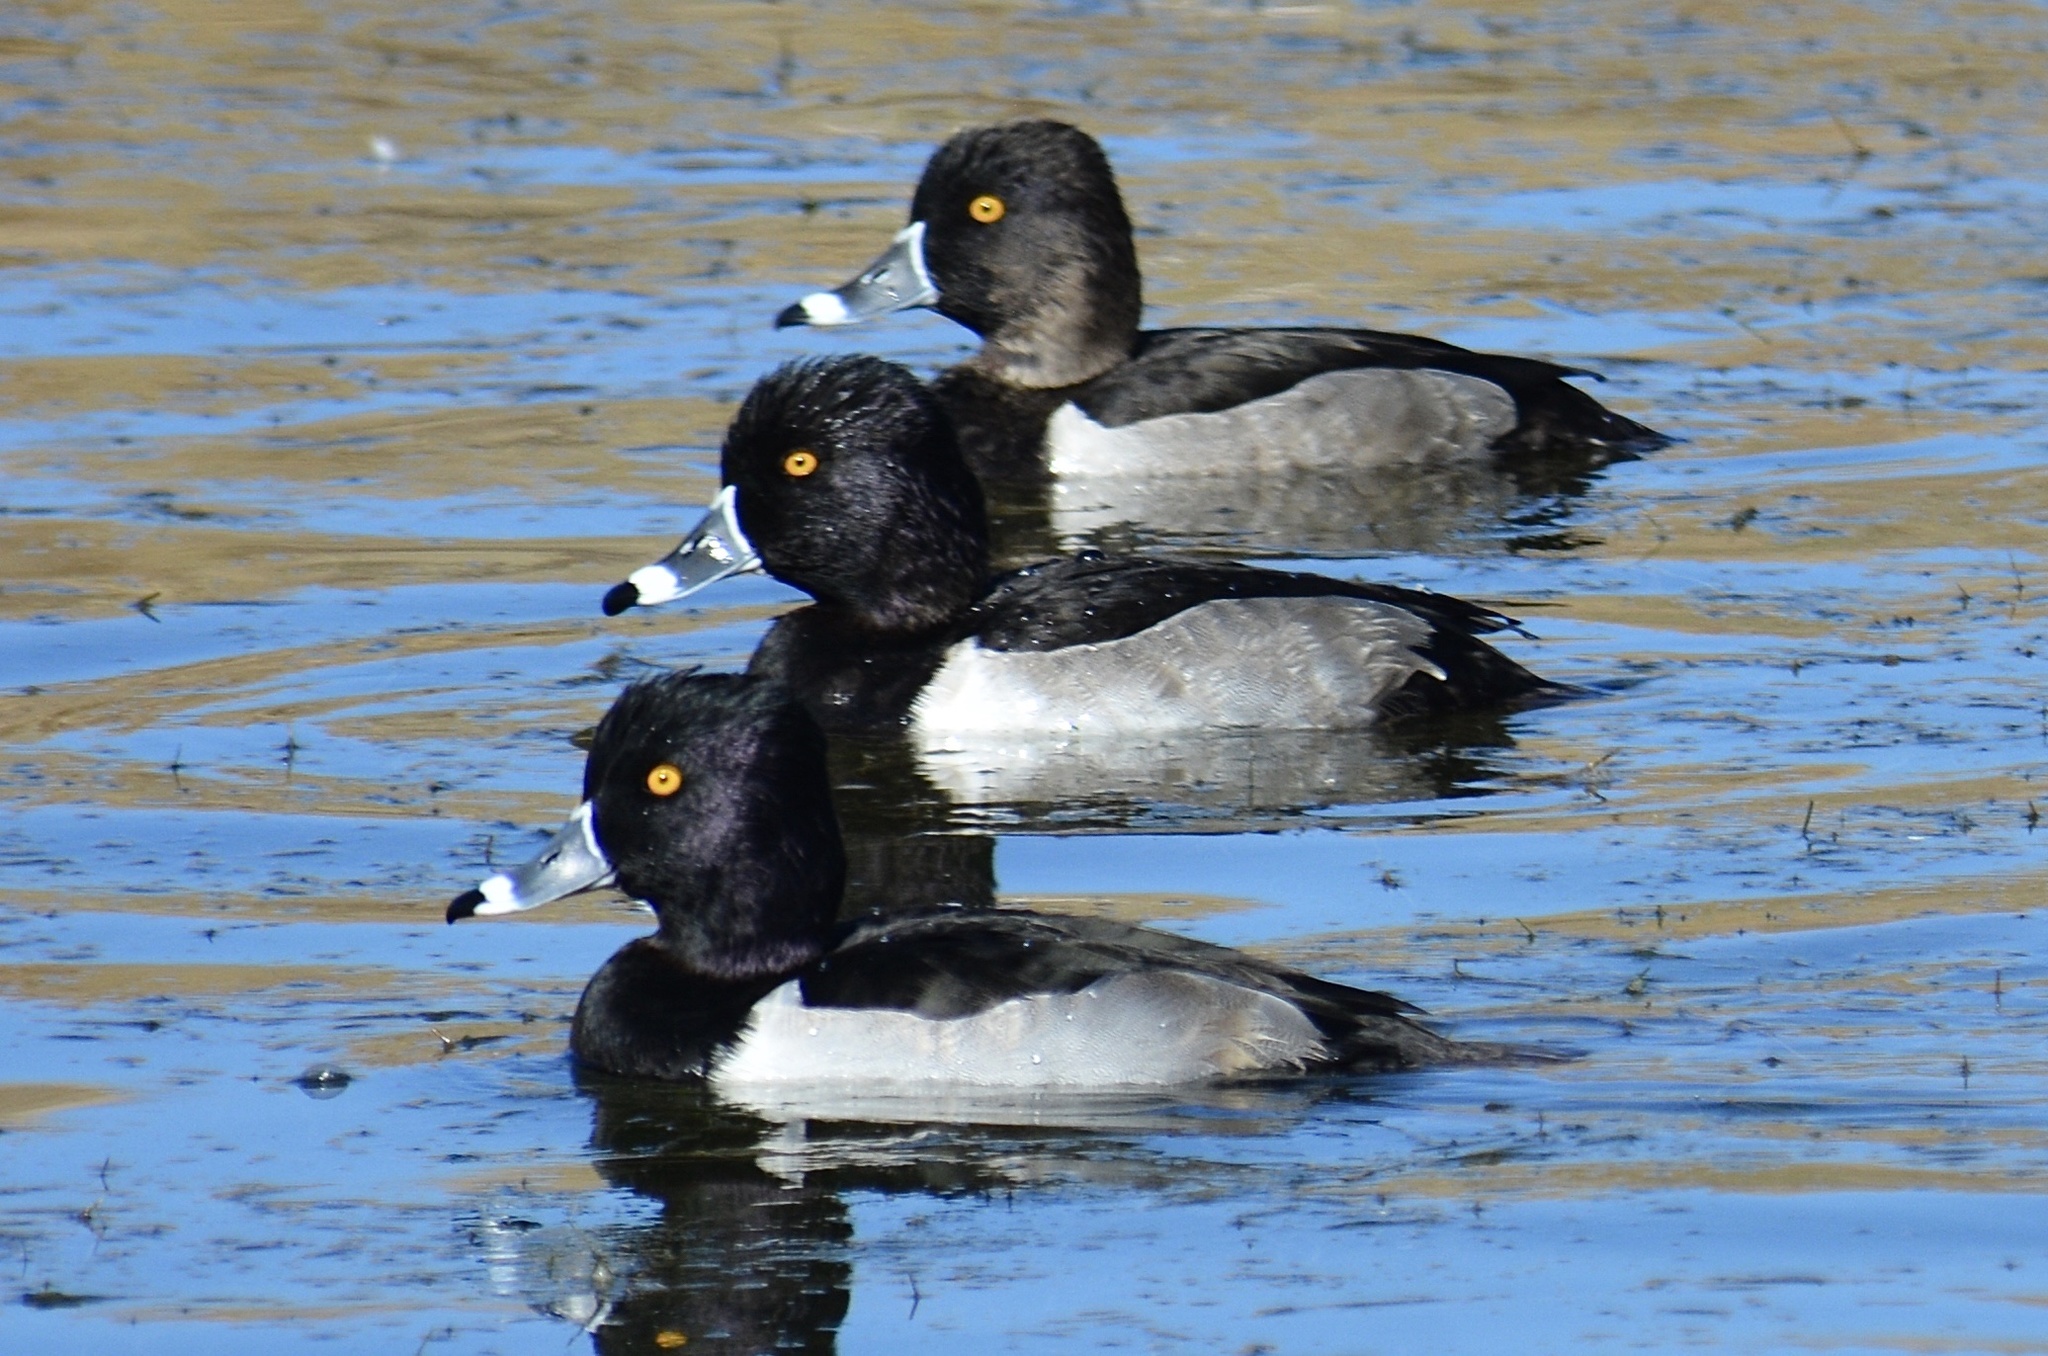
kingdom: Animalia
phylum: Chordata
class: Aves
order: Anseriformes
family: Anatidae
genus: Aythya
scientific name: Aythya collaris
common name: Ring-necked duck
